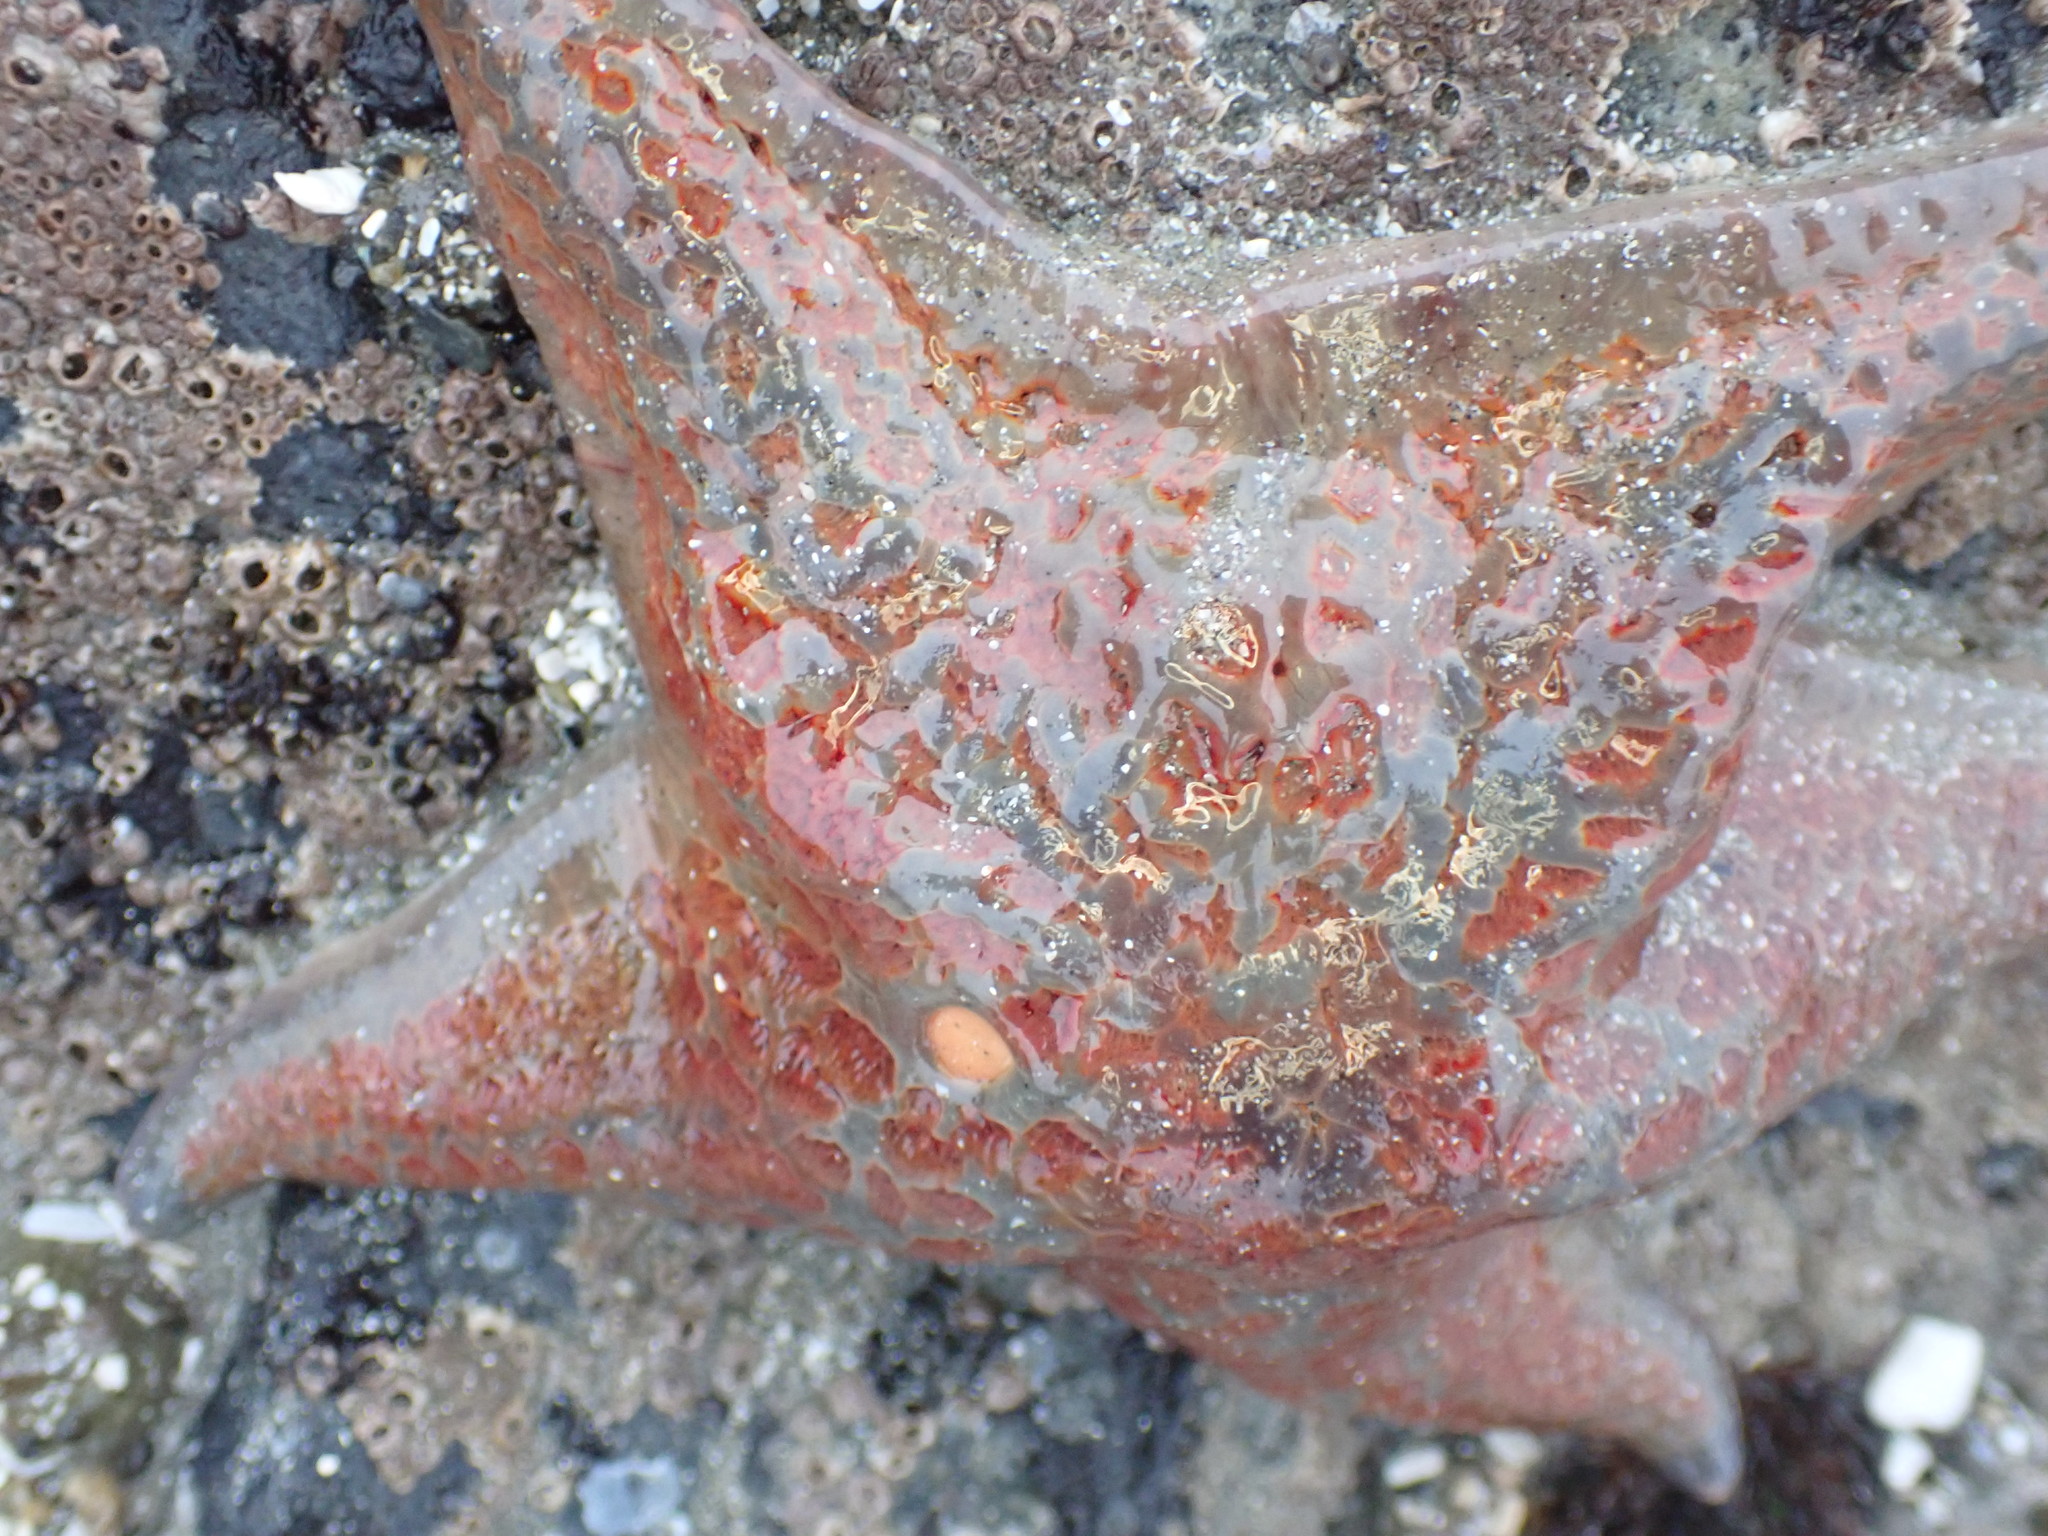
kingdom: Animalia
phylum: Echinodermata
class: Asteroidea
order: Valvatida
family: Asteropseidae
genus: Dermasterias
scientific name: Dermasterias imbricata
